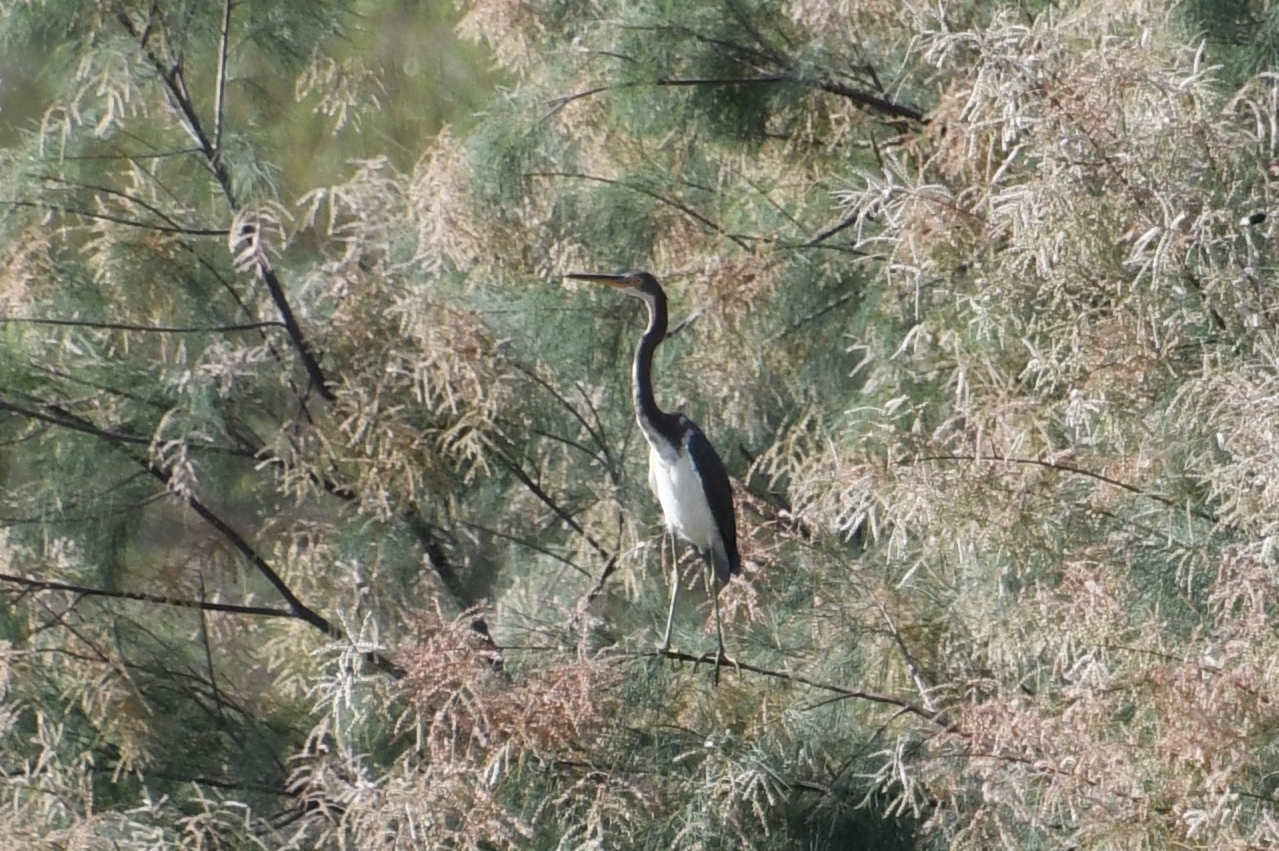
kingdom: Animalia
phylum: Chordata
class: Aves
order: Pelecaniformes
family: Ardeidae
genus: Egretta
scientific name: Egretta tricolor
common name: Tricolored heron
